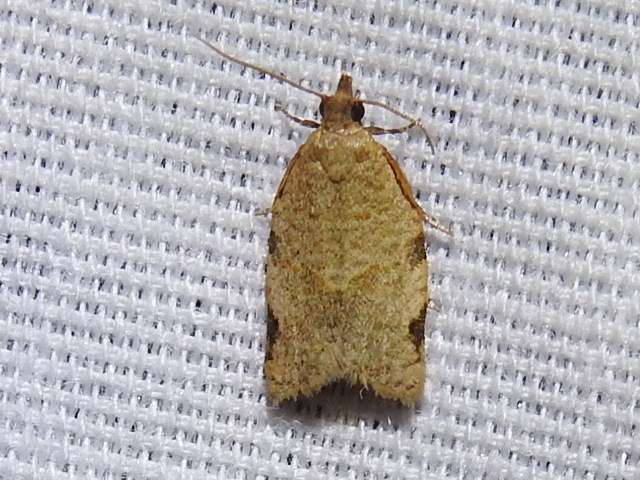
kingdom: Animalia
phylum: Arthropoda
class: Insecta
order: Lepidoptera
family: Tortricidae
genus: Clepsis
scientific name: Clepsis virescana
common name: Greenish apple moth
